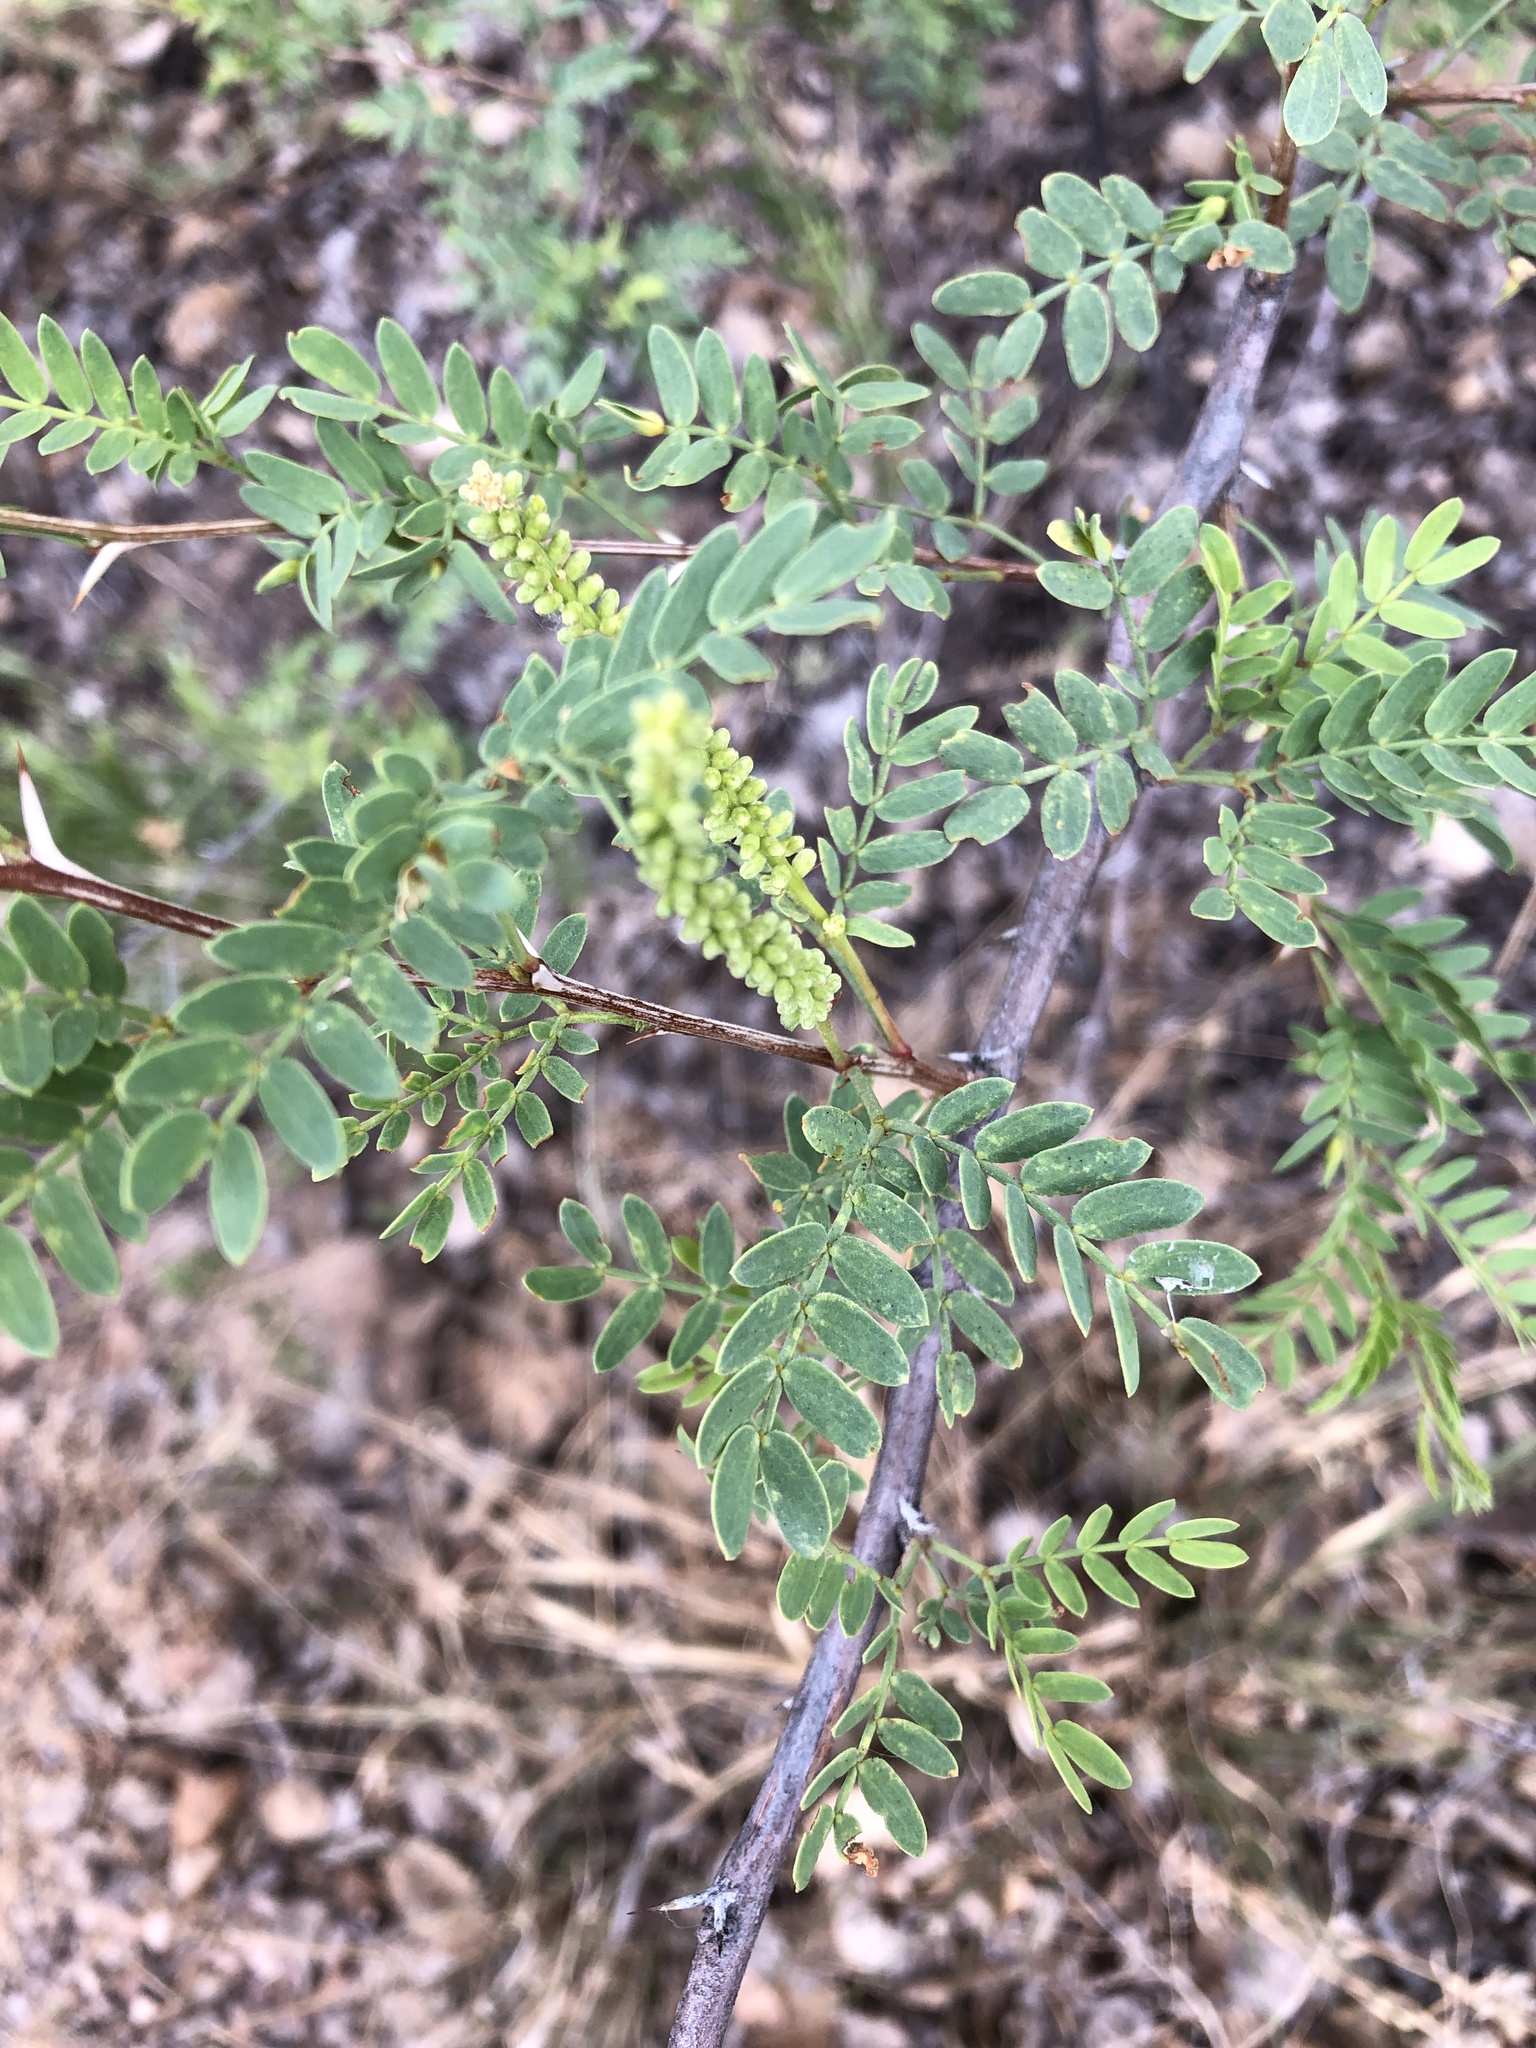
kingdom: Plantae
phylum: Tracheophyta
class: Magnoliopsida
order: Fabales
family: Fabaceae
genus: Prosopis
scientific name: Prosopis pubescens
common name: Screw-bean
